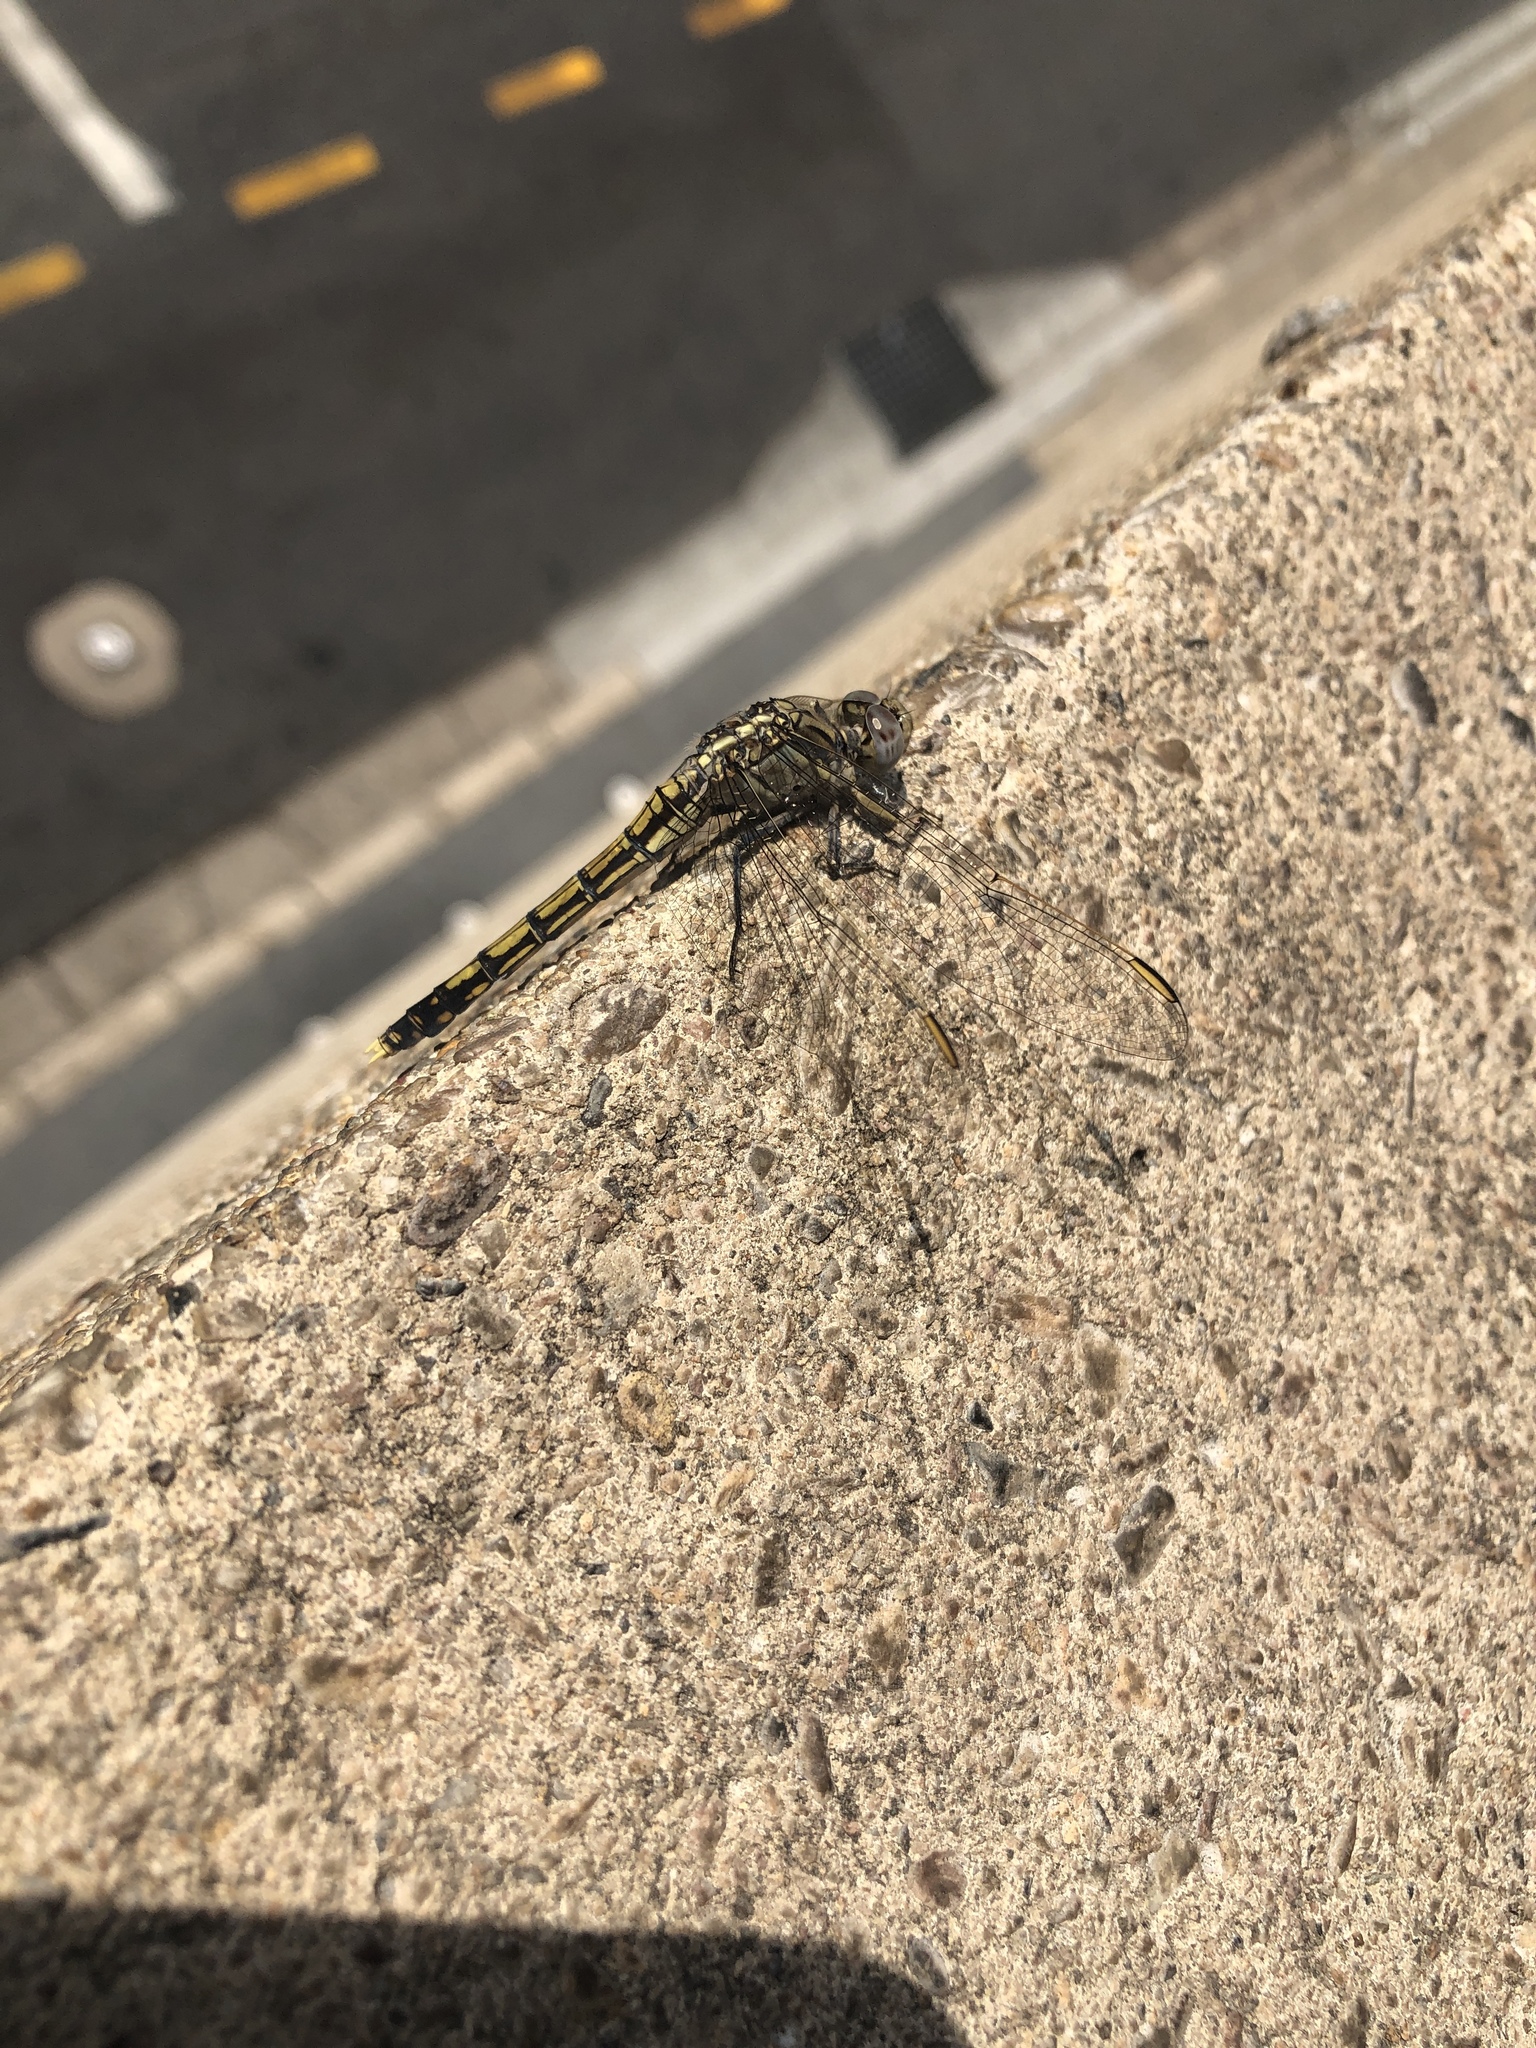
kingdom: Animalia
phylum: Arthropoda
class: Insecta
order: Odonata
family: Libellulidae
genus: Orthetrum
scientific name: Orthetrum caledonicum
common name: Blue skimmer
